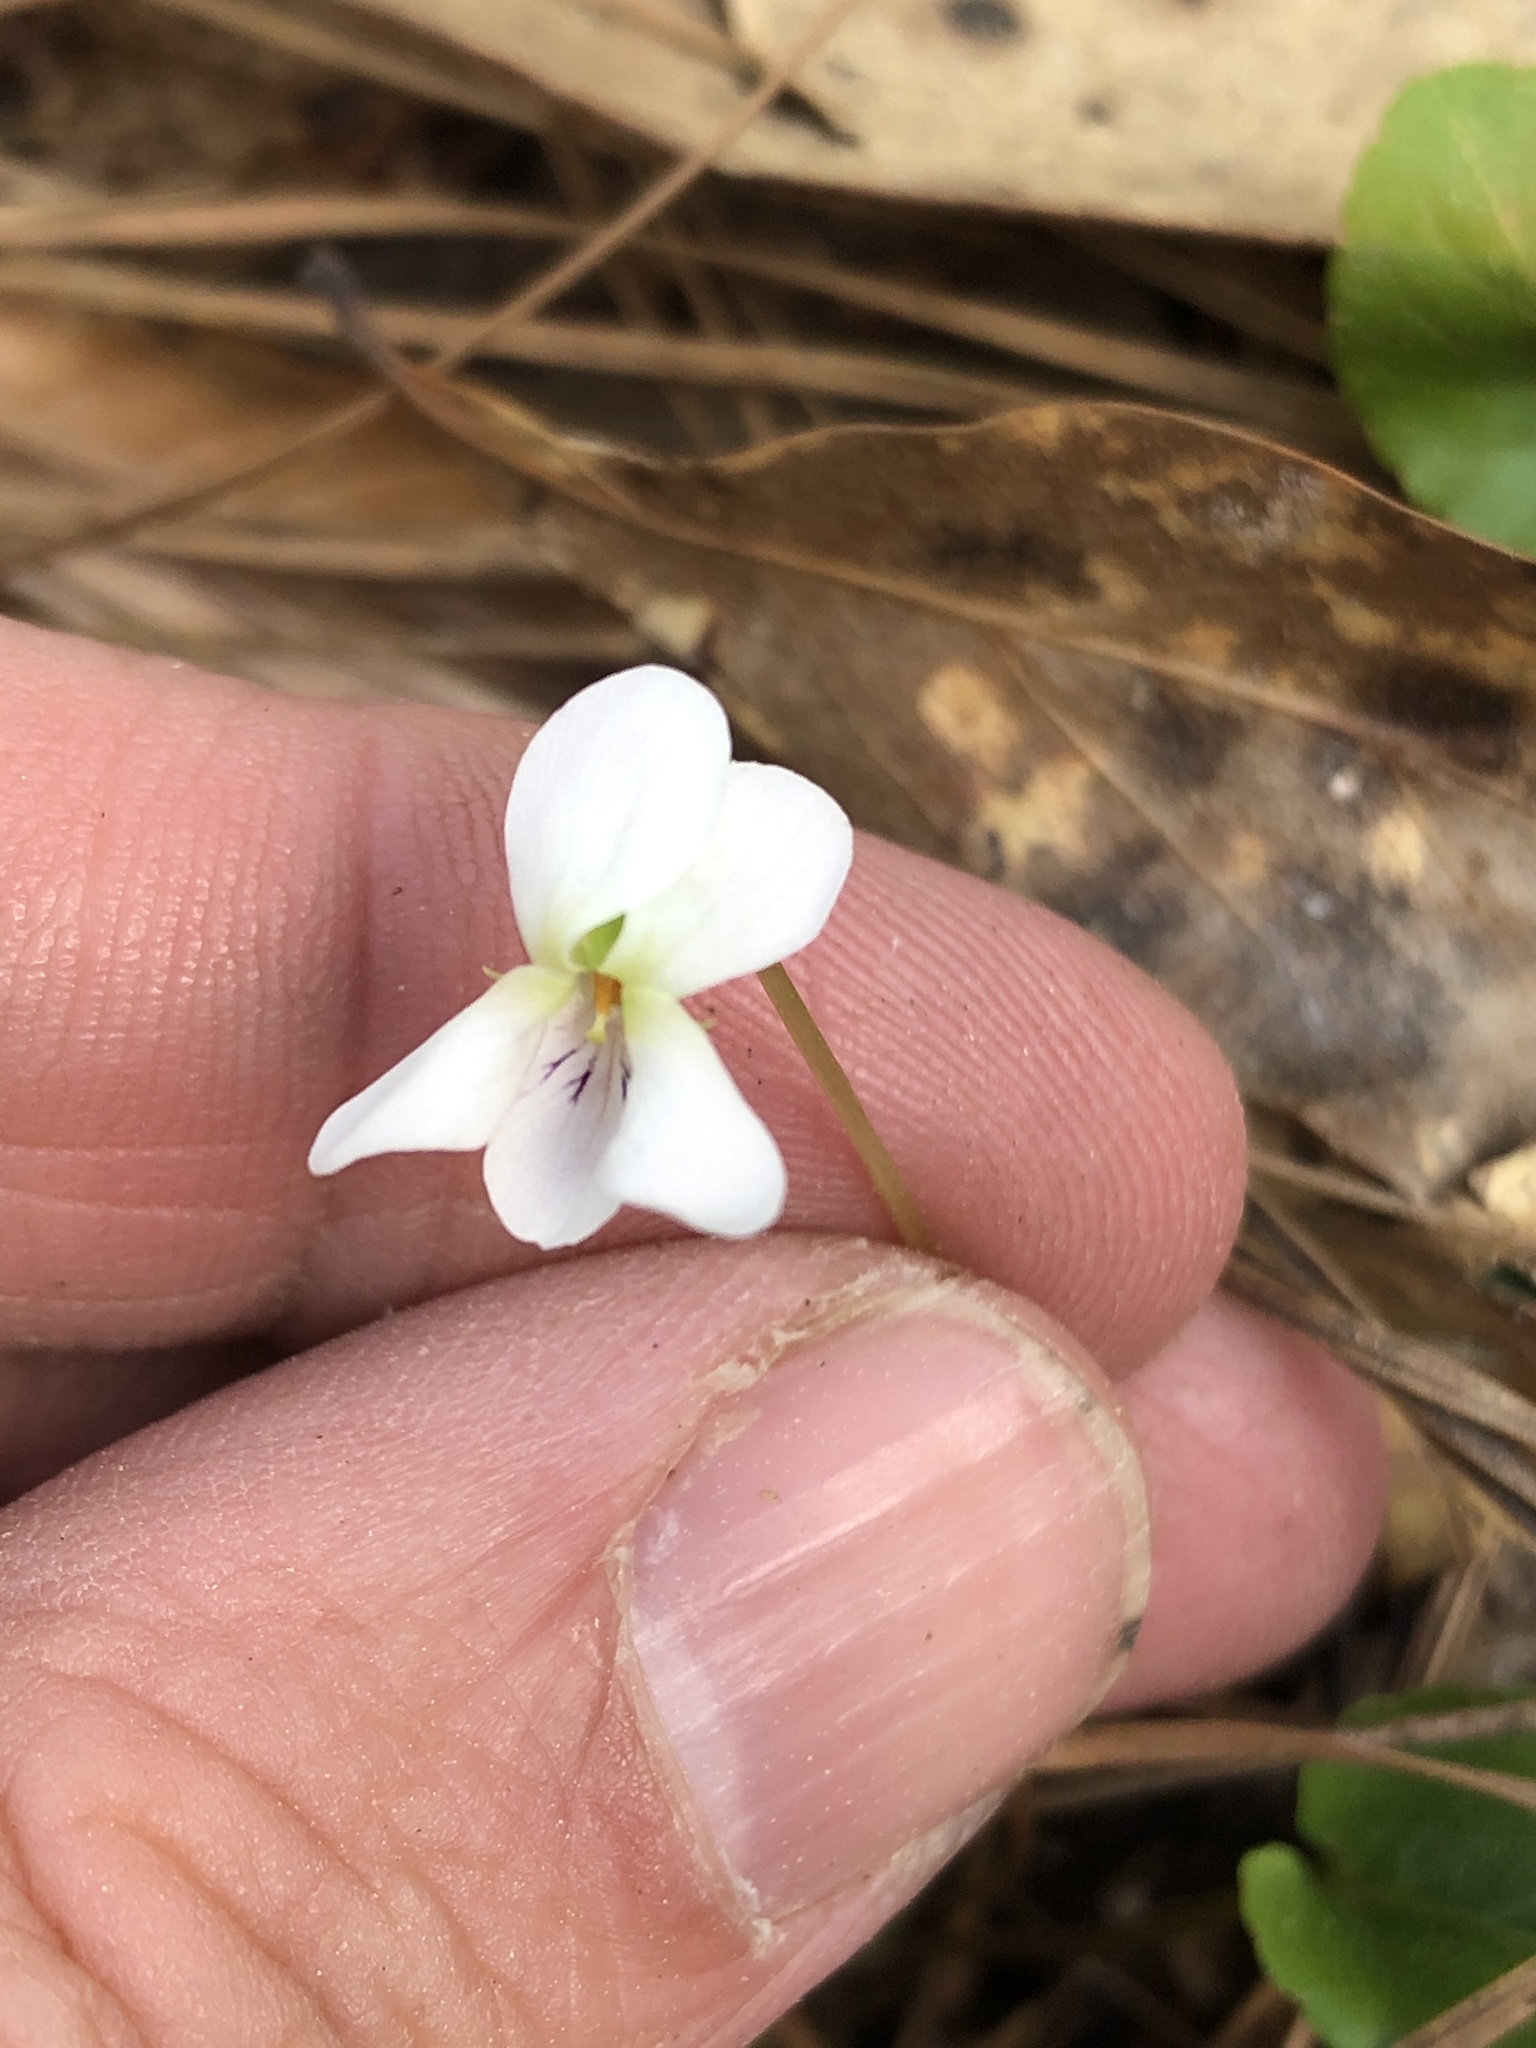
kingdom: Plantae
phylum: Tracheophyta
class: Magnoliopsida
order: Malpighiales
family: Violaceae
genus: Viola
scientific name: Viola primulifolia
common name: Primrose-leaf violet
